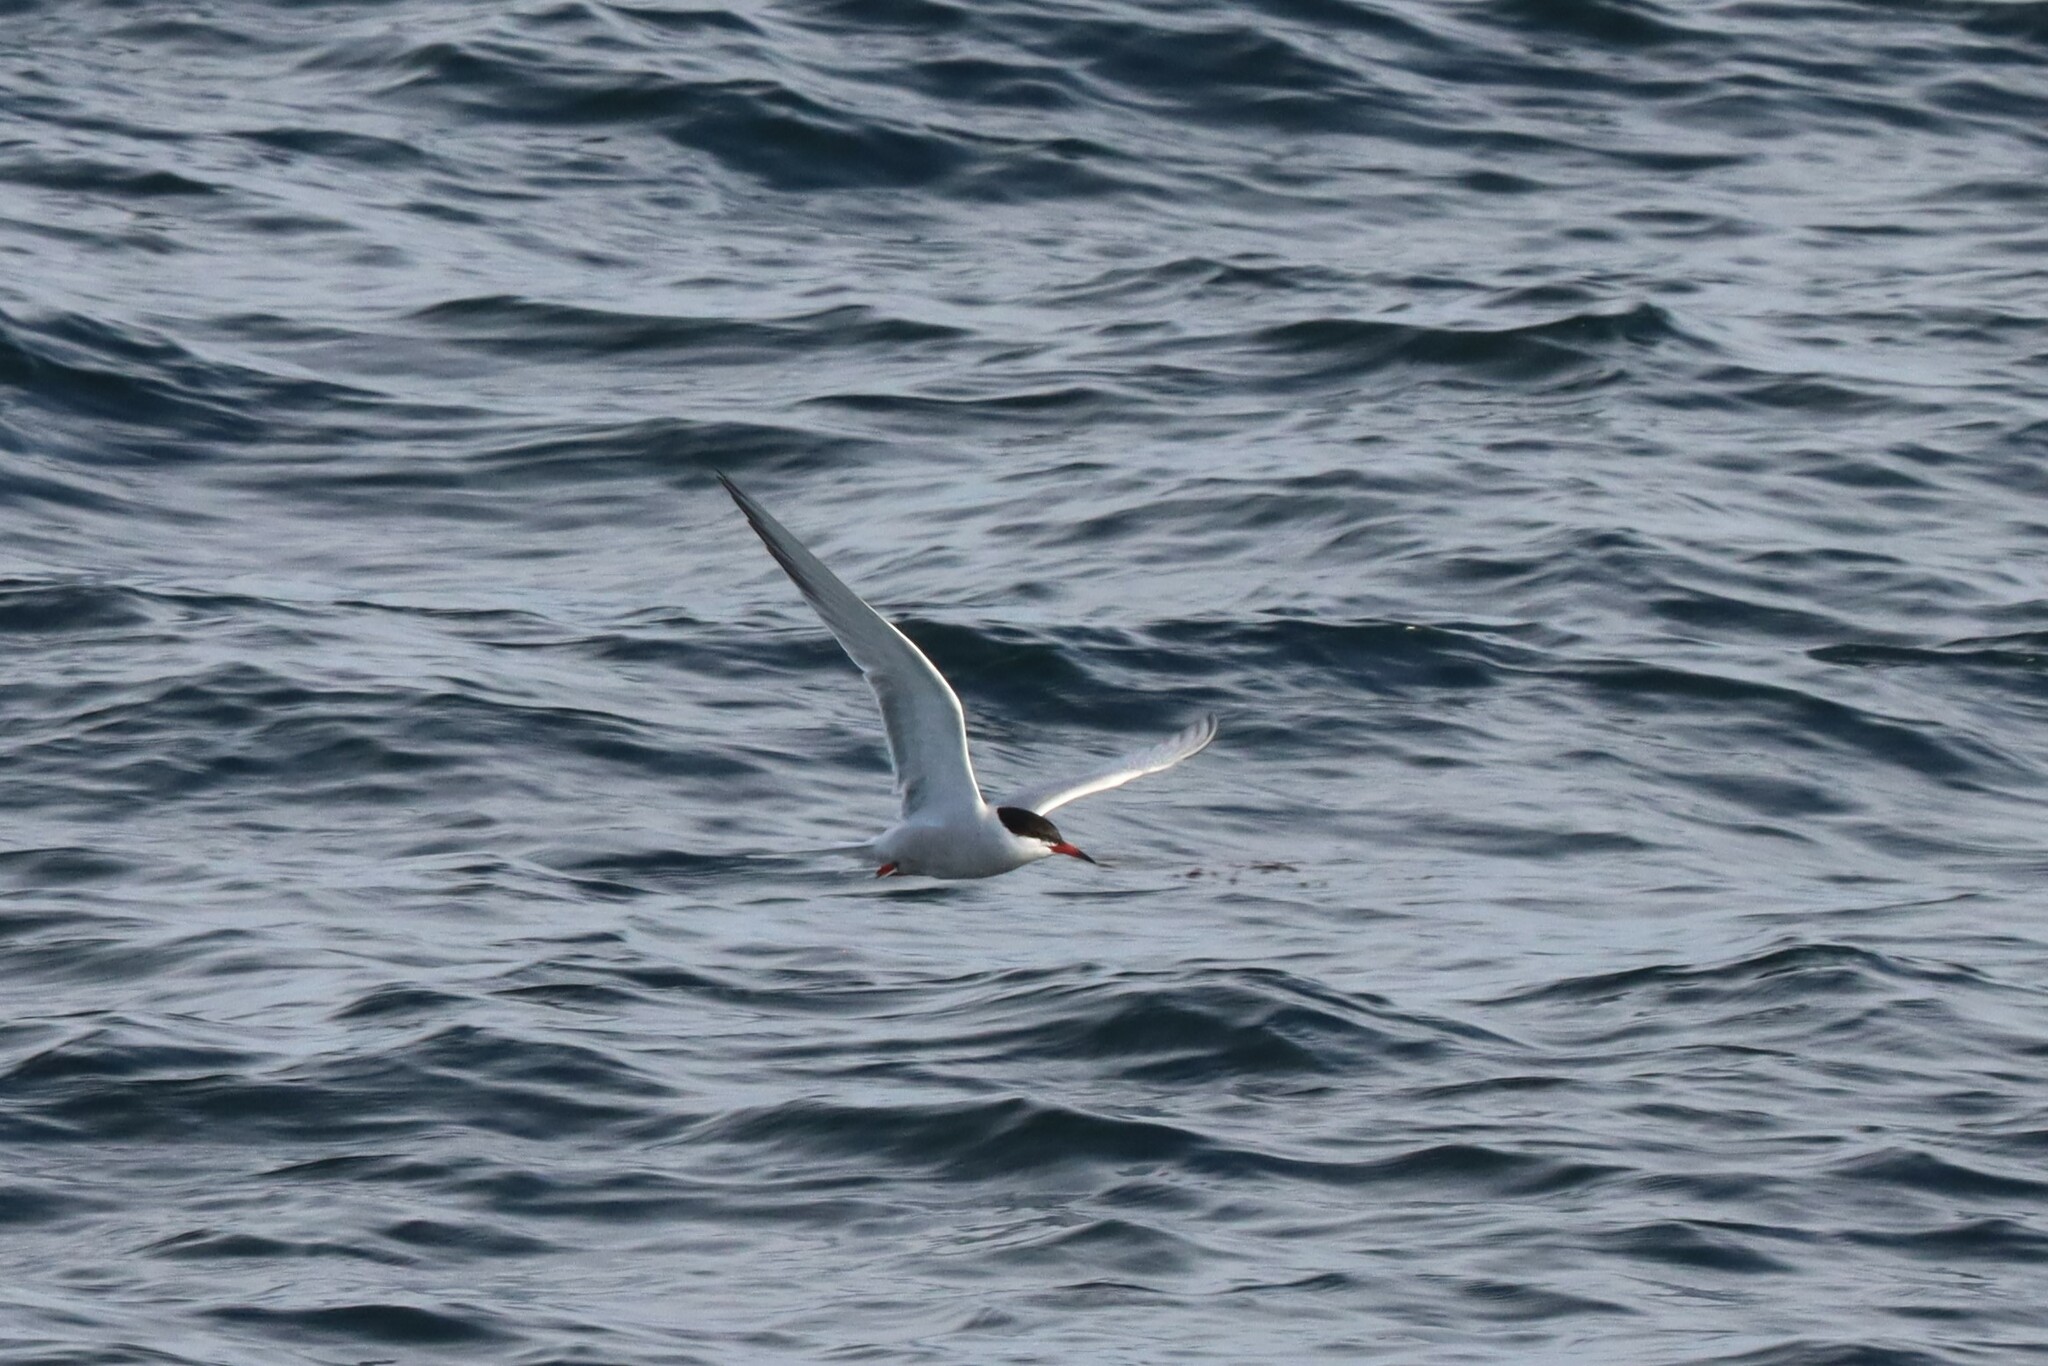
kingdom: Animalia
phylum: Chordata
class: Aves
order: Charadriiformes
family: Laridae
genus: Sterna
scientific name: Sterna hirundo
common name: Common tern
